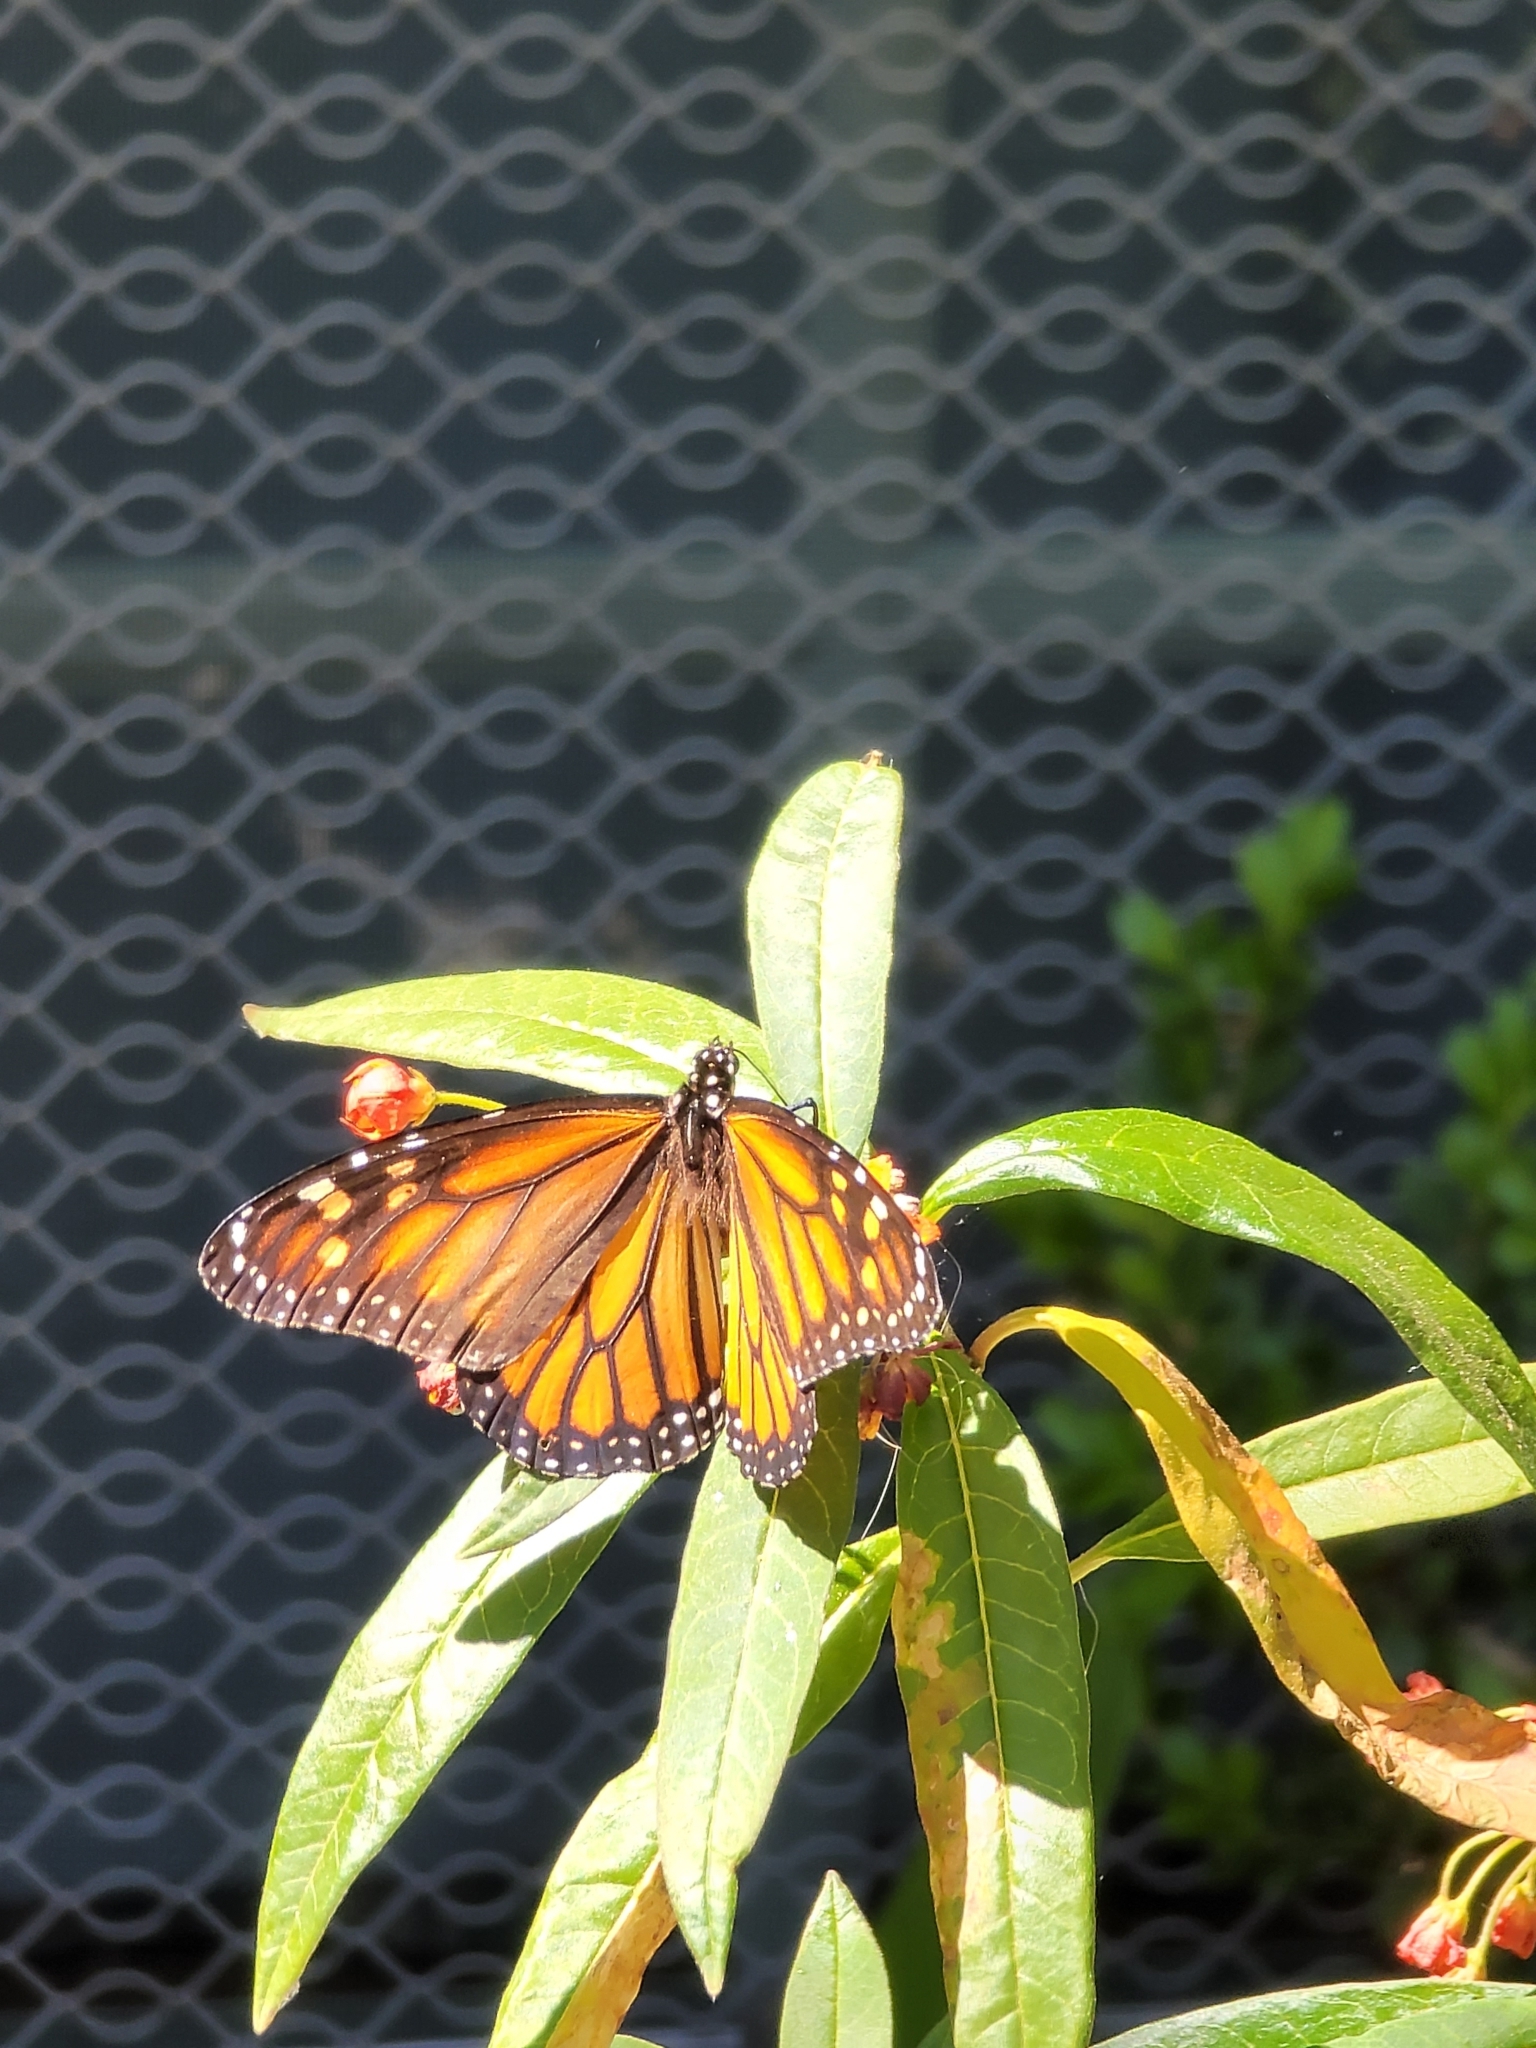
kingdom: Animalia
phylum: Arthropoda
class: Insecta
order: Lepidoptera
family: Nymphalidae
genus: Danaus
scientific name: Danaus plexippus
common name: Monarch
